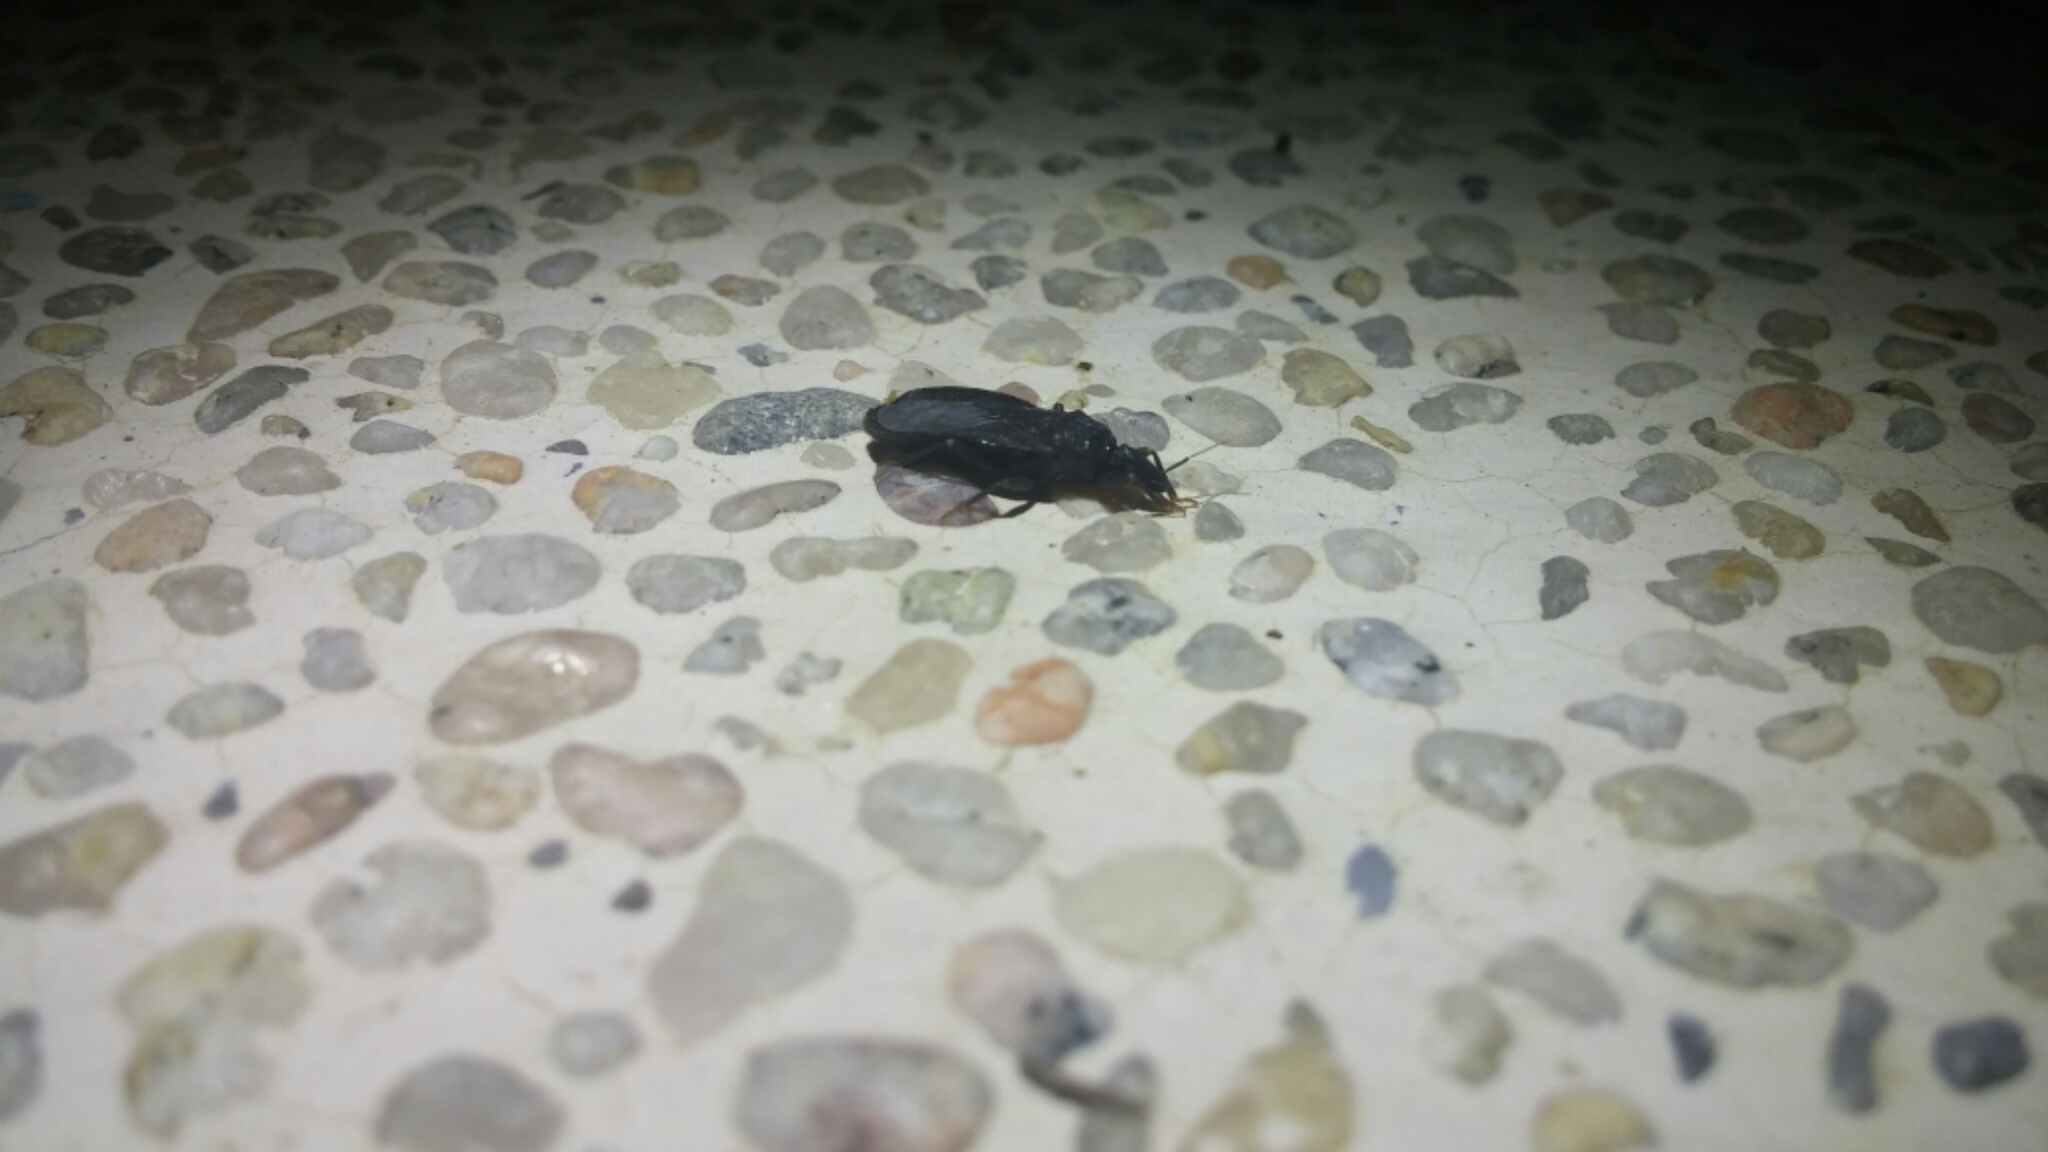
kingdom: Animalia
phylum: Arthropoda
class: Insecta
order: Hemiptera
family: Reduviidae
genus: Triatoma
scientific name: Triatoma protracta
